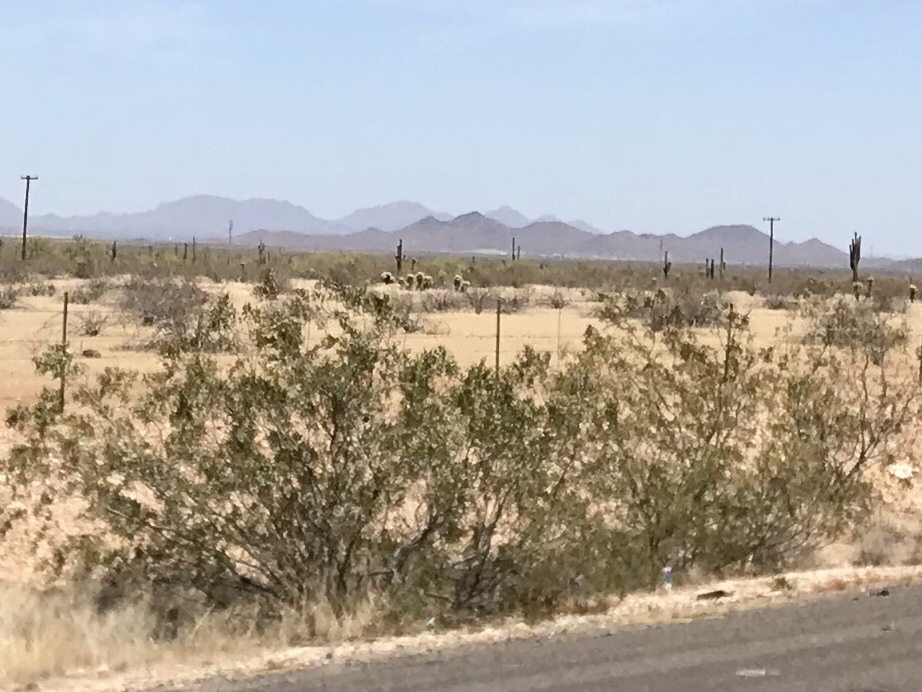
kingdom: Plantae
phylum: Tracheophyta
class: Magnoliopsida
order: Zygophyllales
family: Zygophyllaceae
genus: Larrea
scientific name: Larrea tridentata
